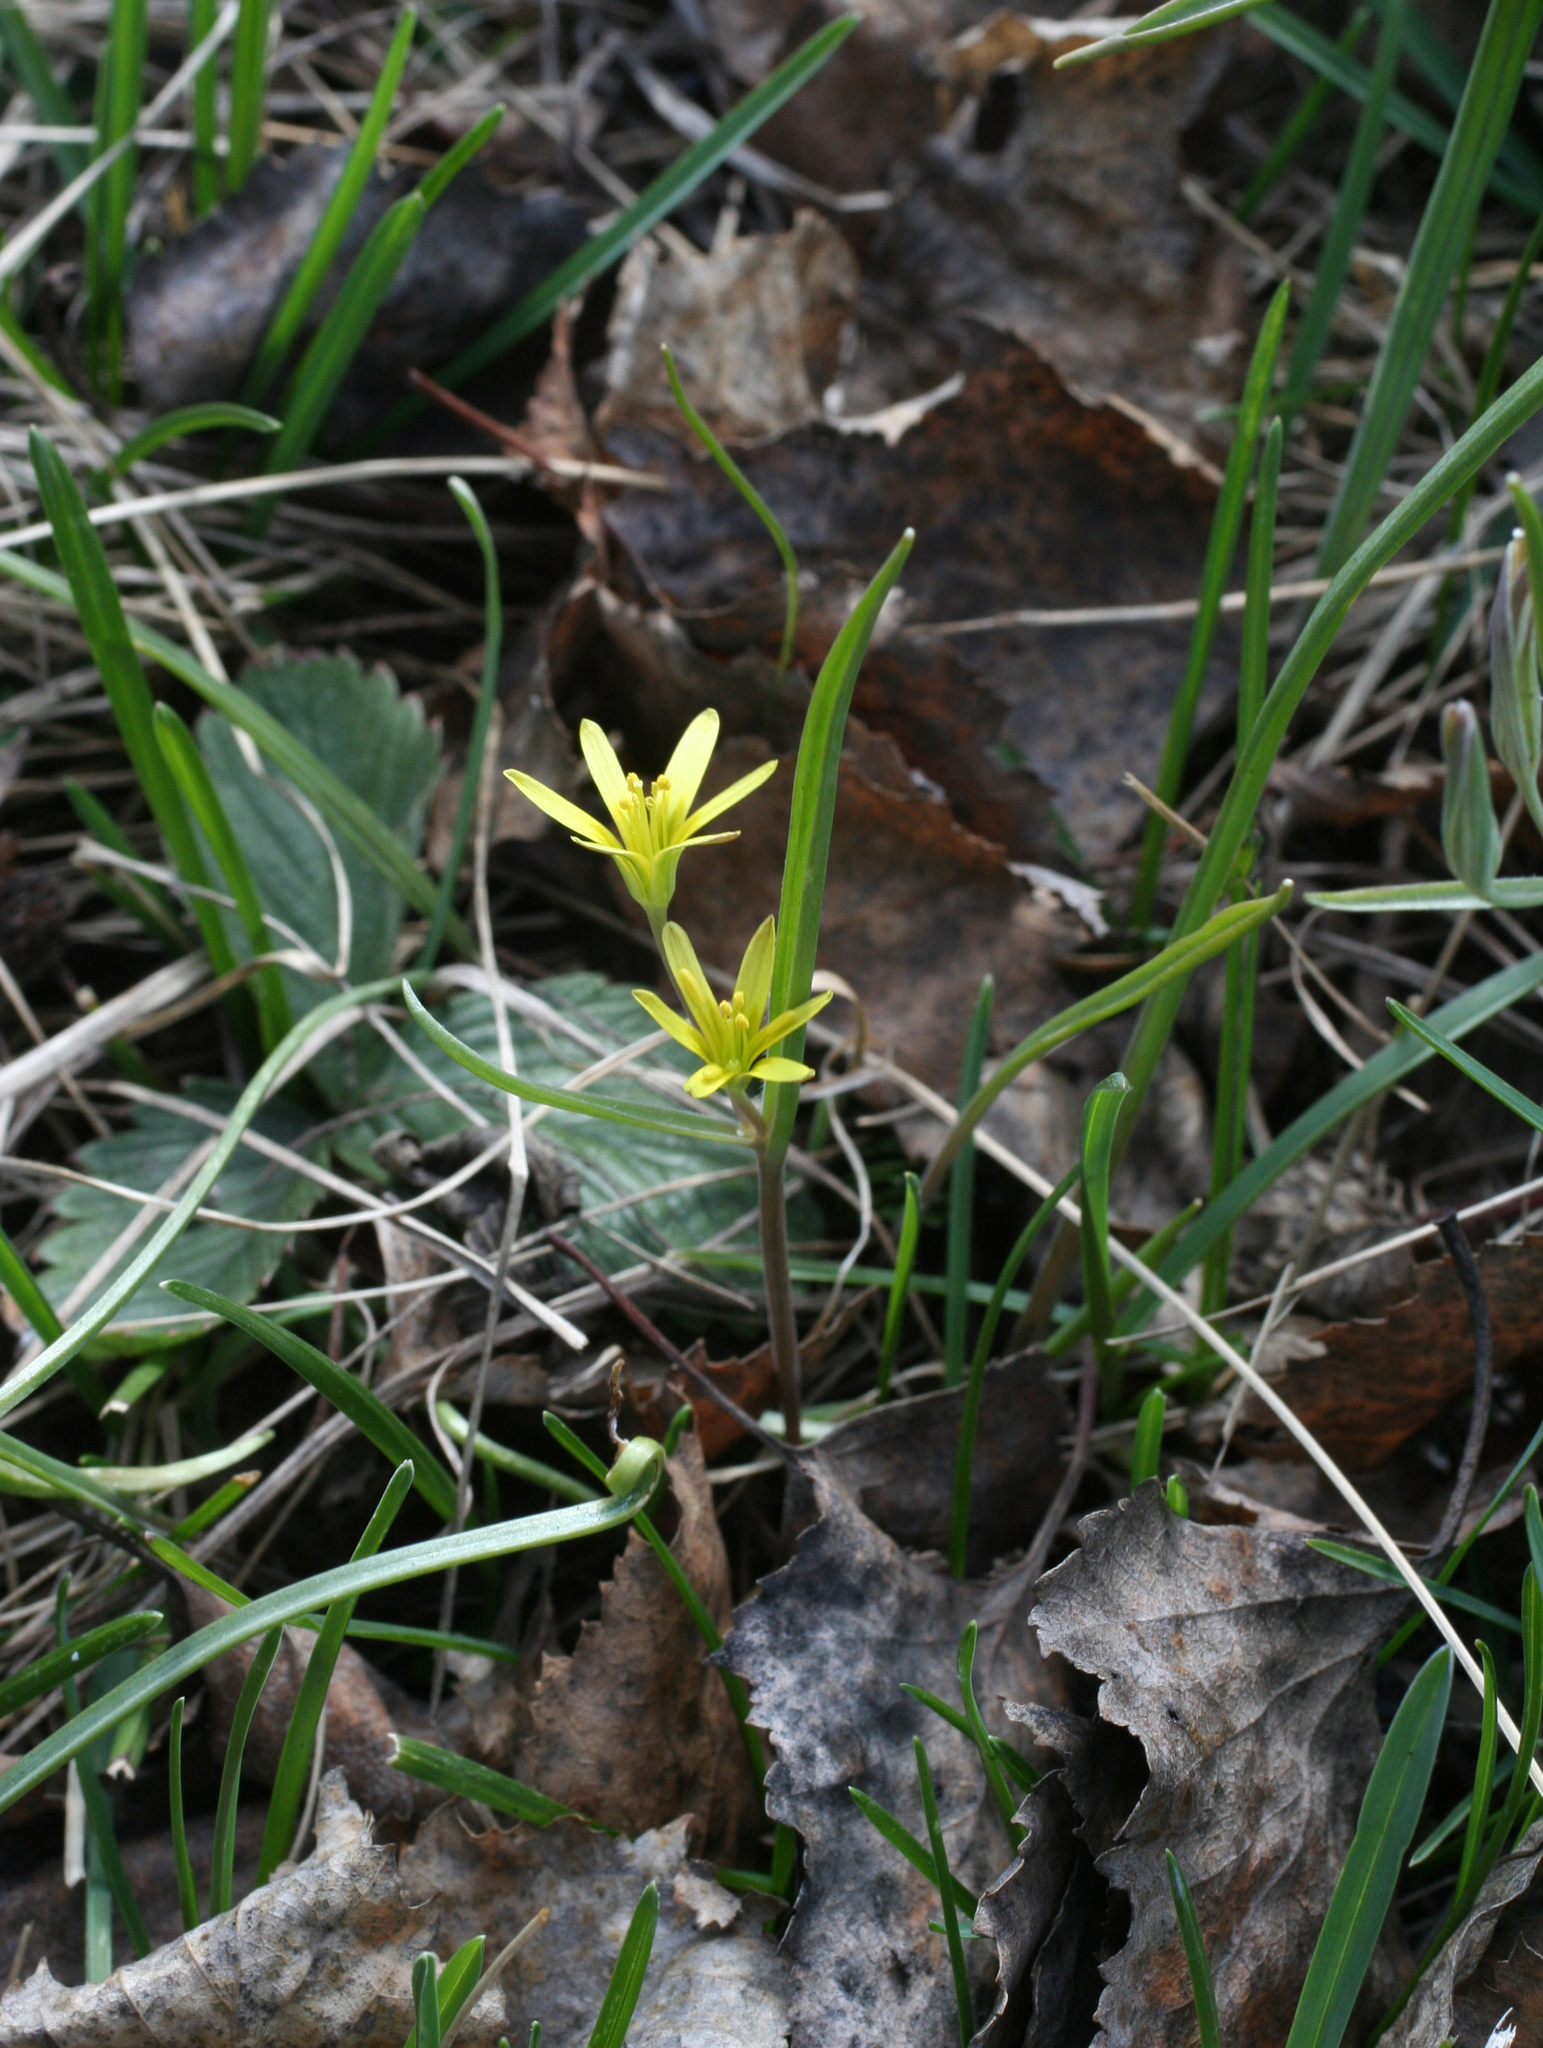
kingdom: Plantae
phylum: Tracheophyta
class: Liliopsida
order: Liliales
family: Liliaceae
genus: Gagea
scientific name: Gagea fedtschenkoana
